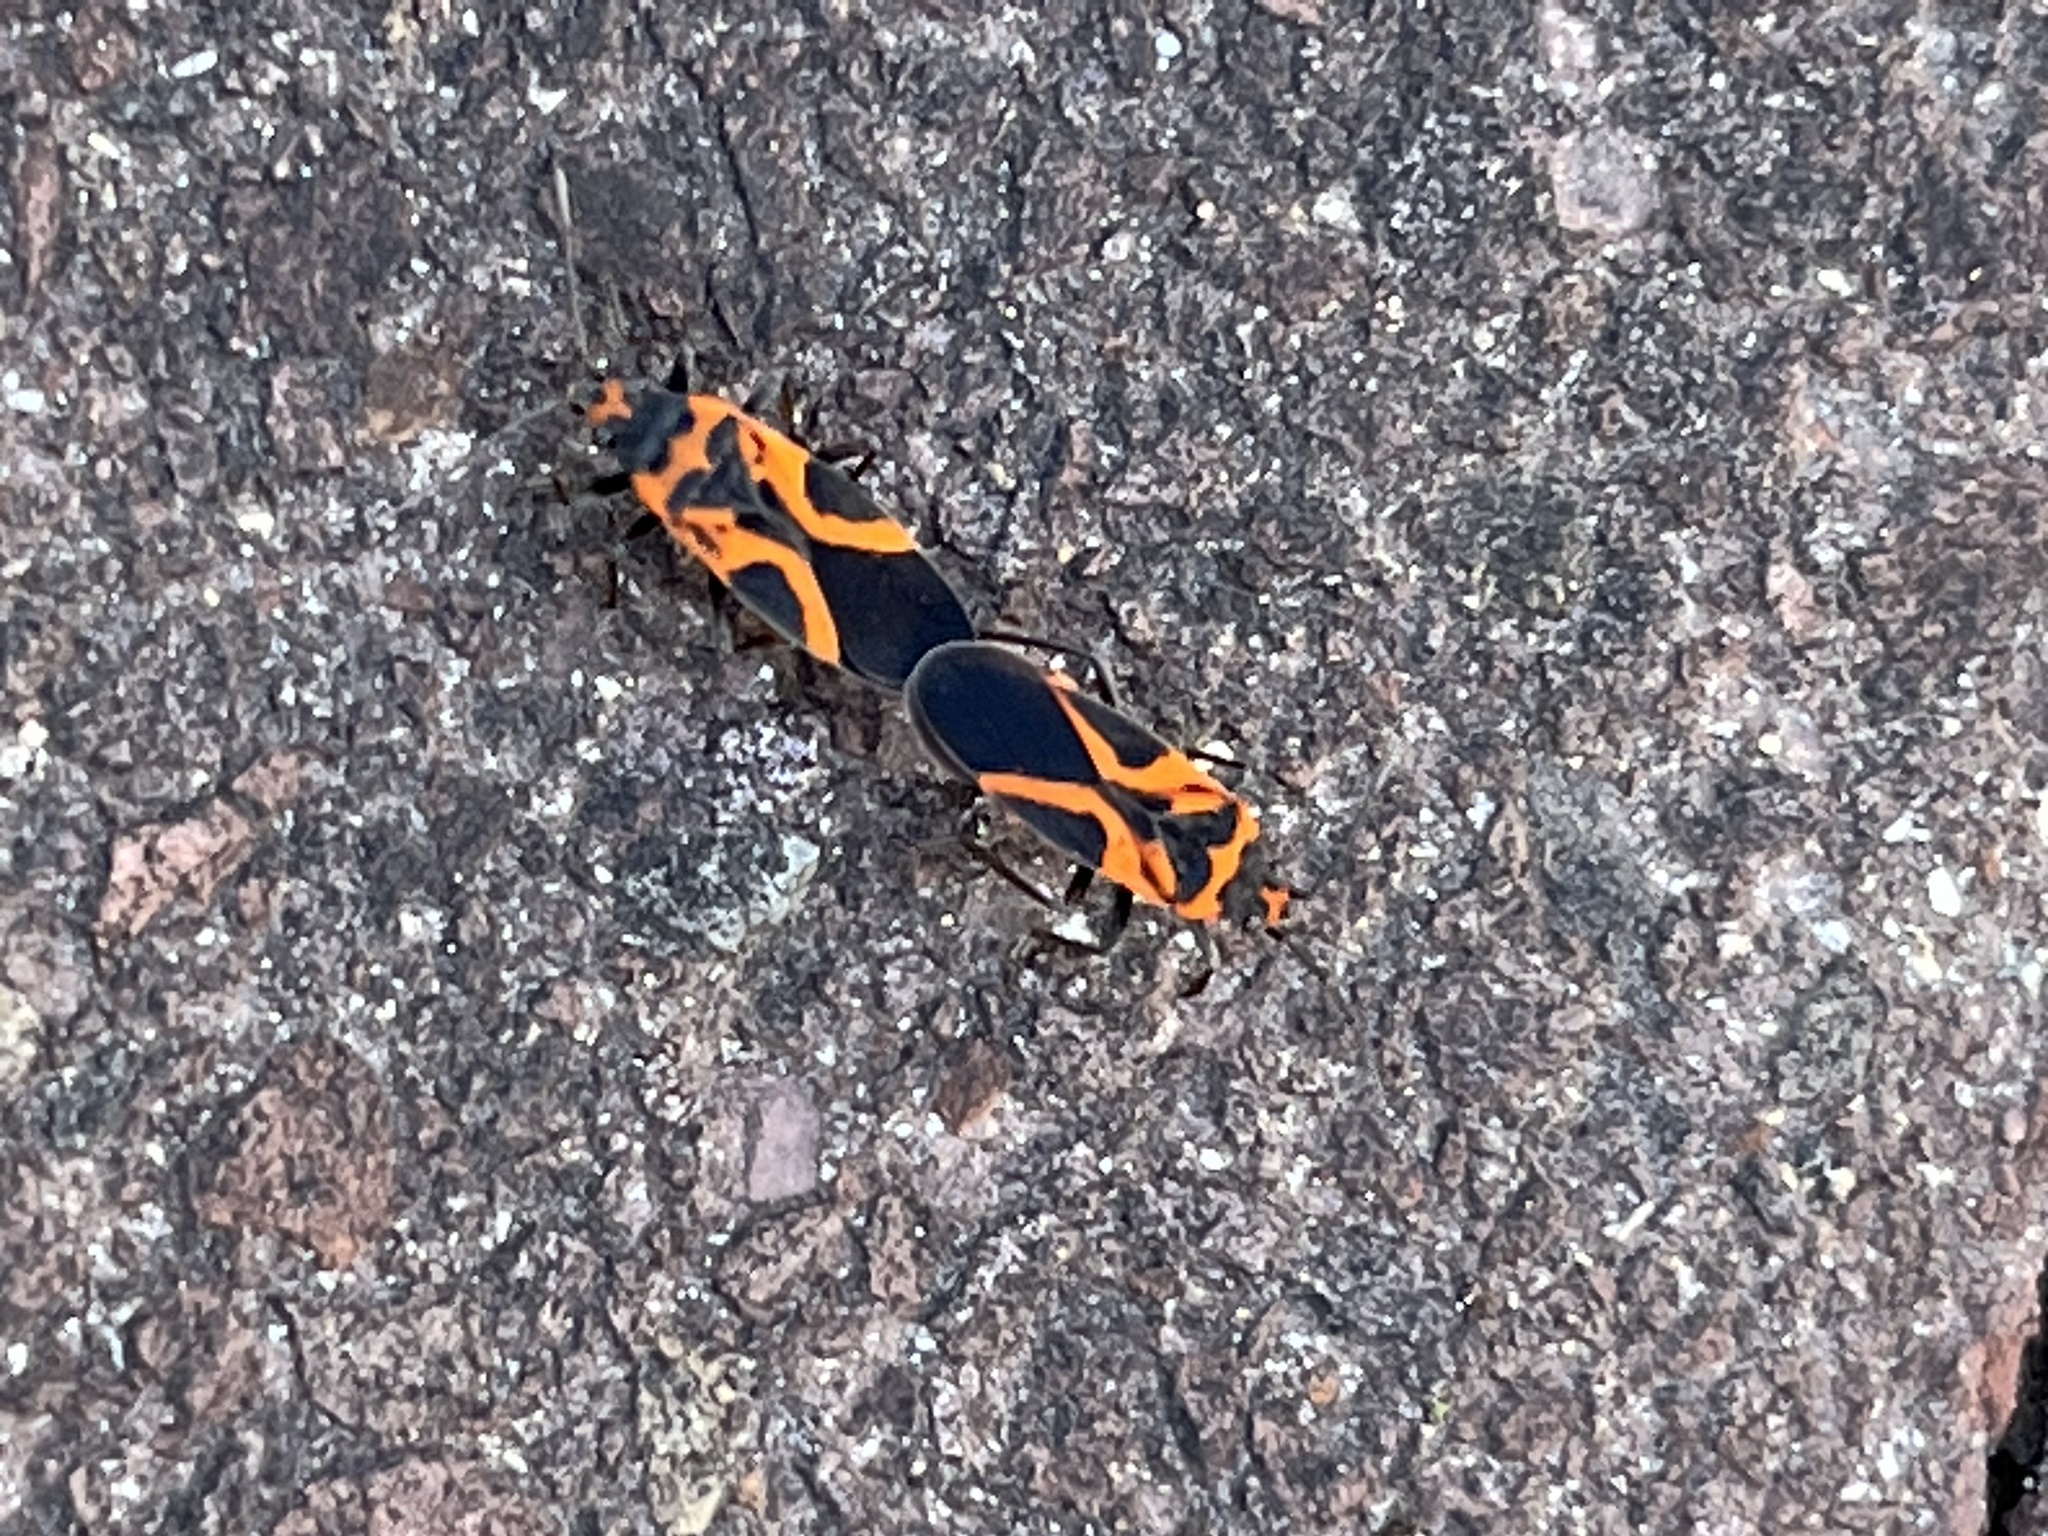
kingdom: Animalia
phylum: Arthropoda
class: Insecta
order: Hemiptera
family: Lygaeidae
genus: Lygaeus
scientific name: Lygaeus turcicus
